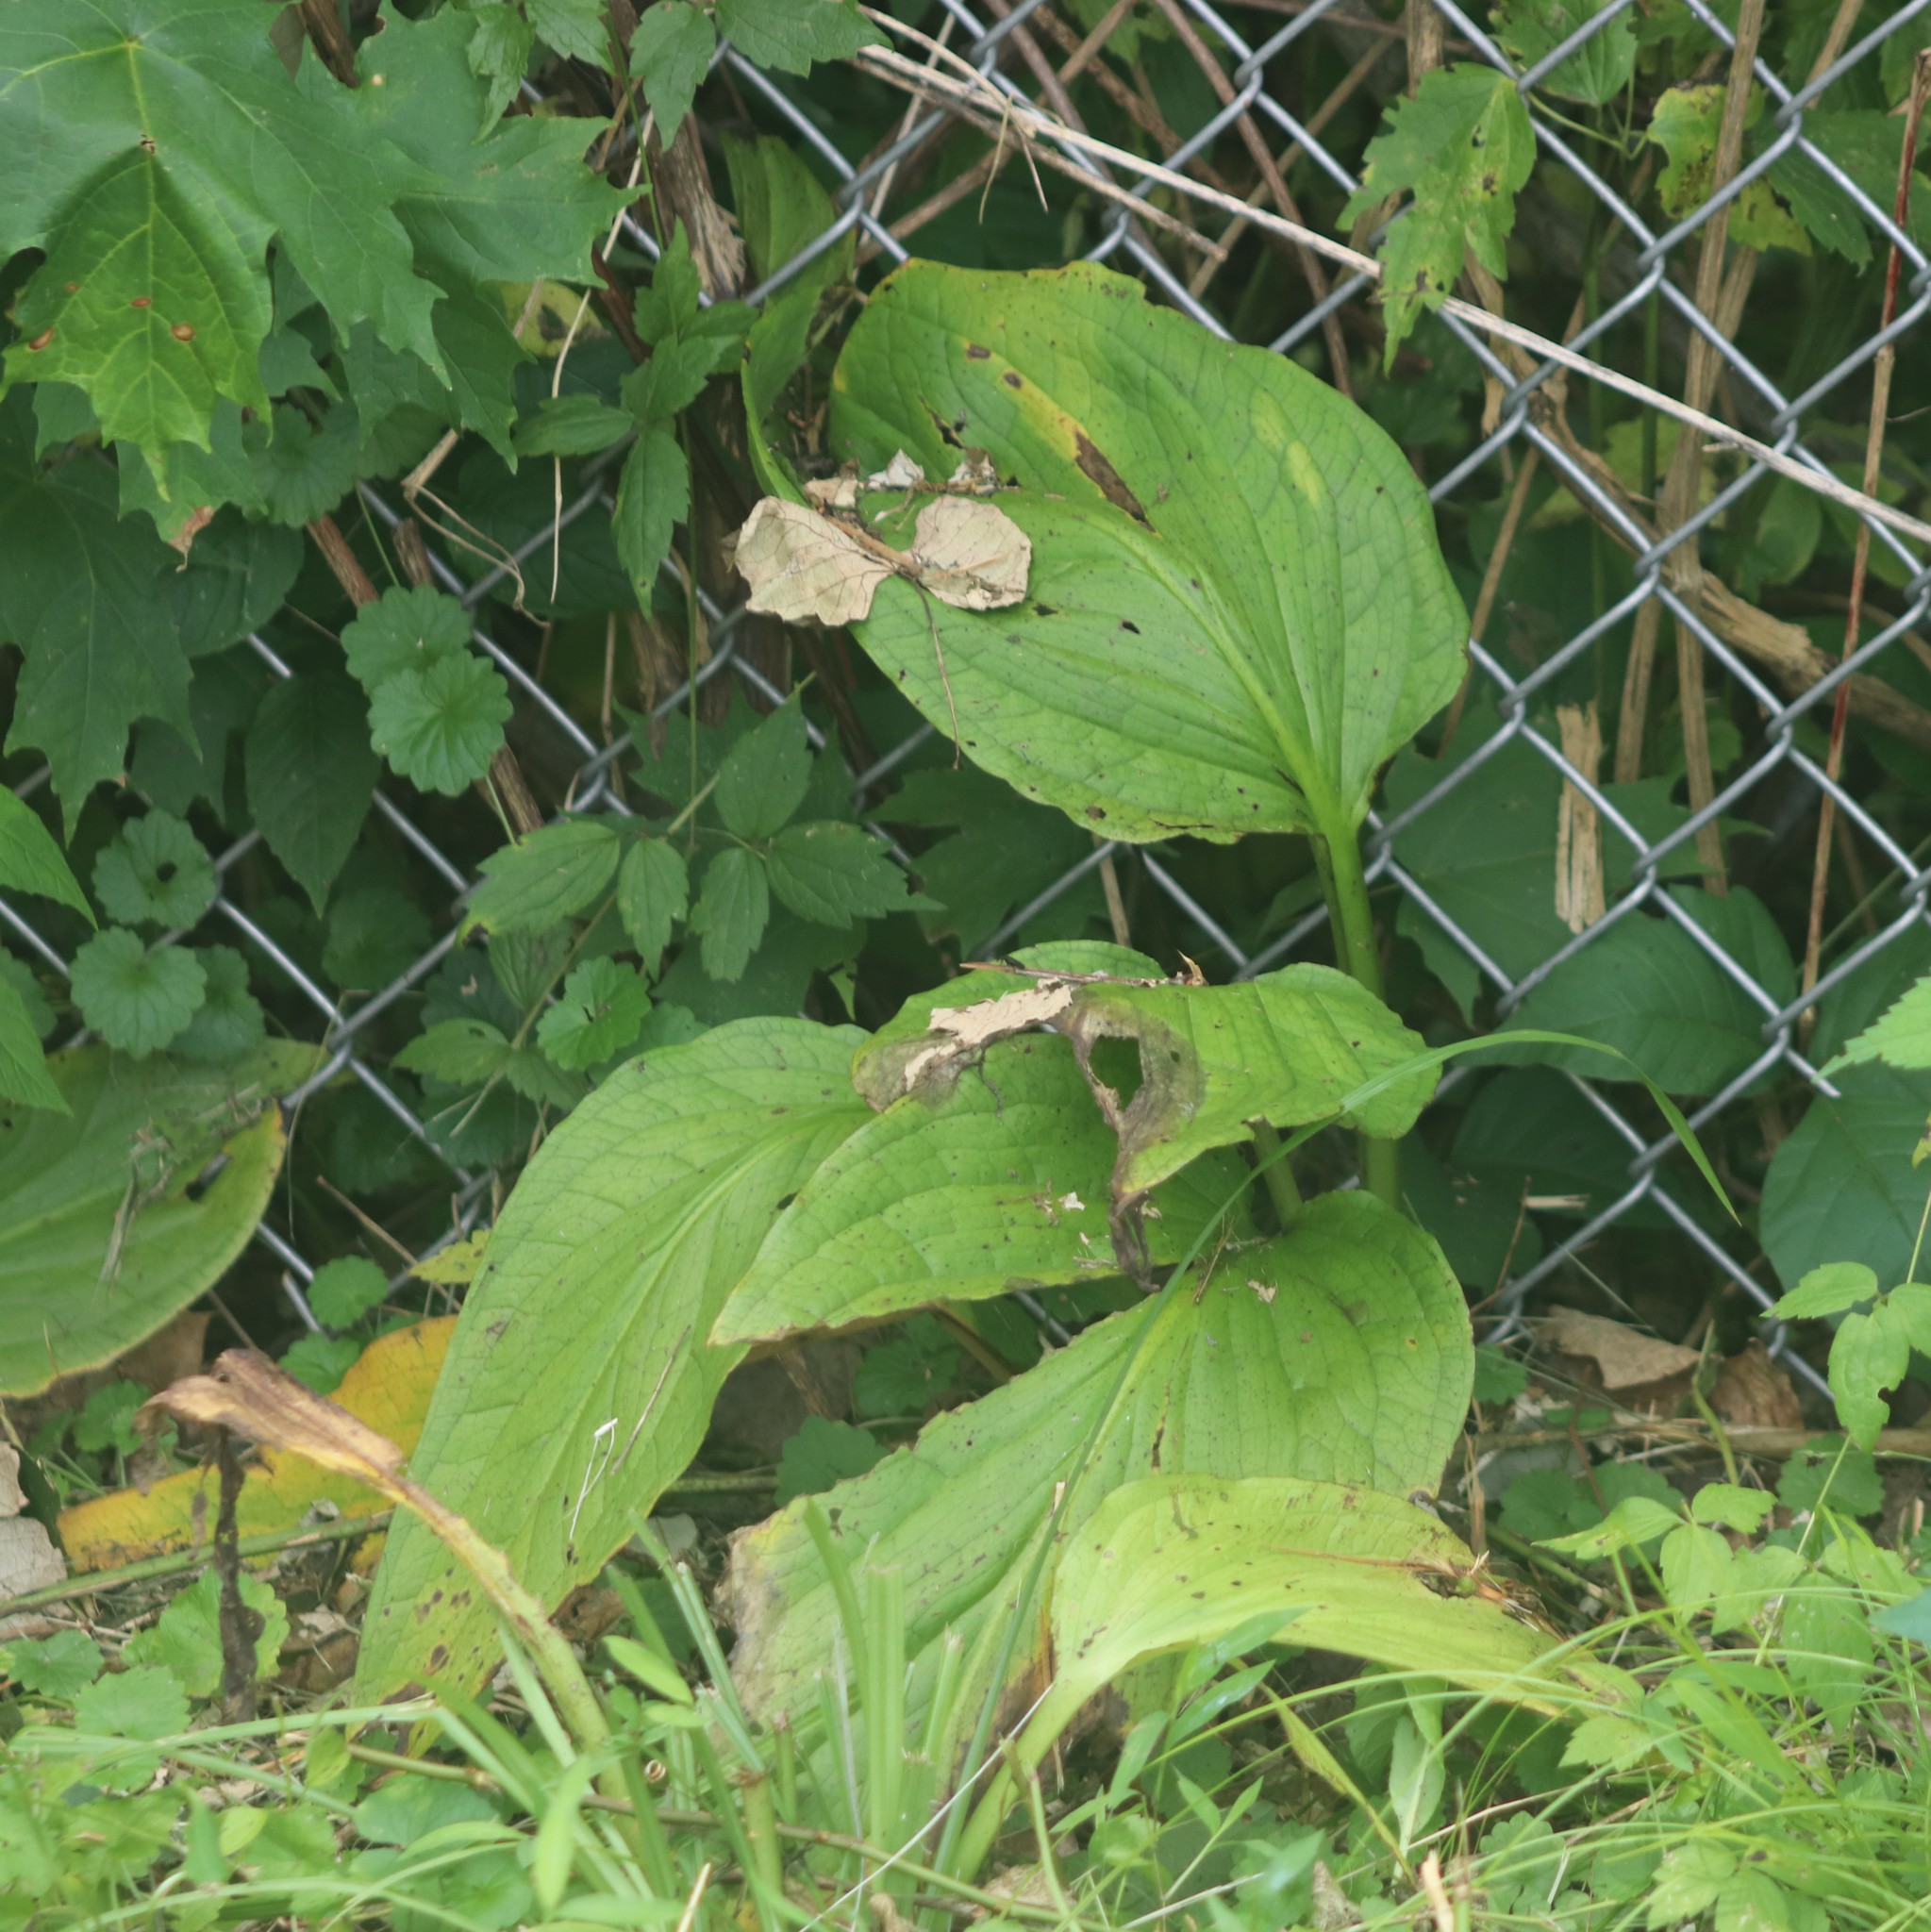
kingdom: Plantae
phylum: Tracheophyta
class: Liliopsida
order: Alismatales
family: Araceae
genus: Symplocarpus
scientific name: Symplocarpus foetidus
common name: Eastern skunk cabbage
